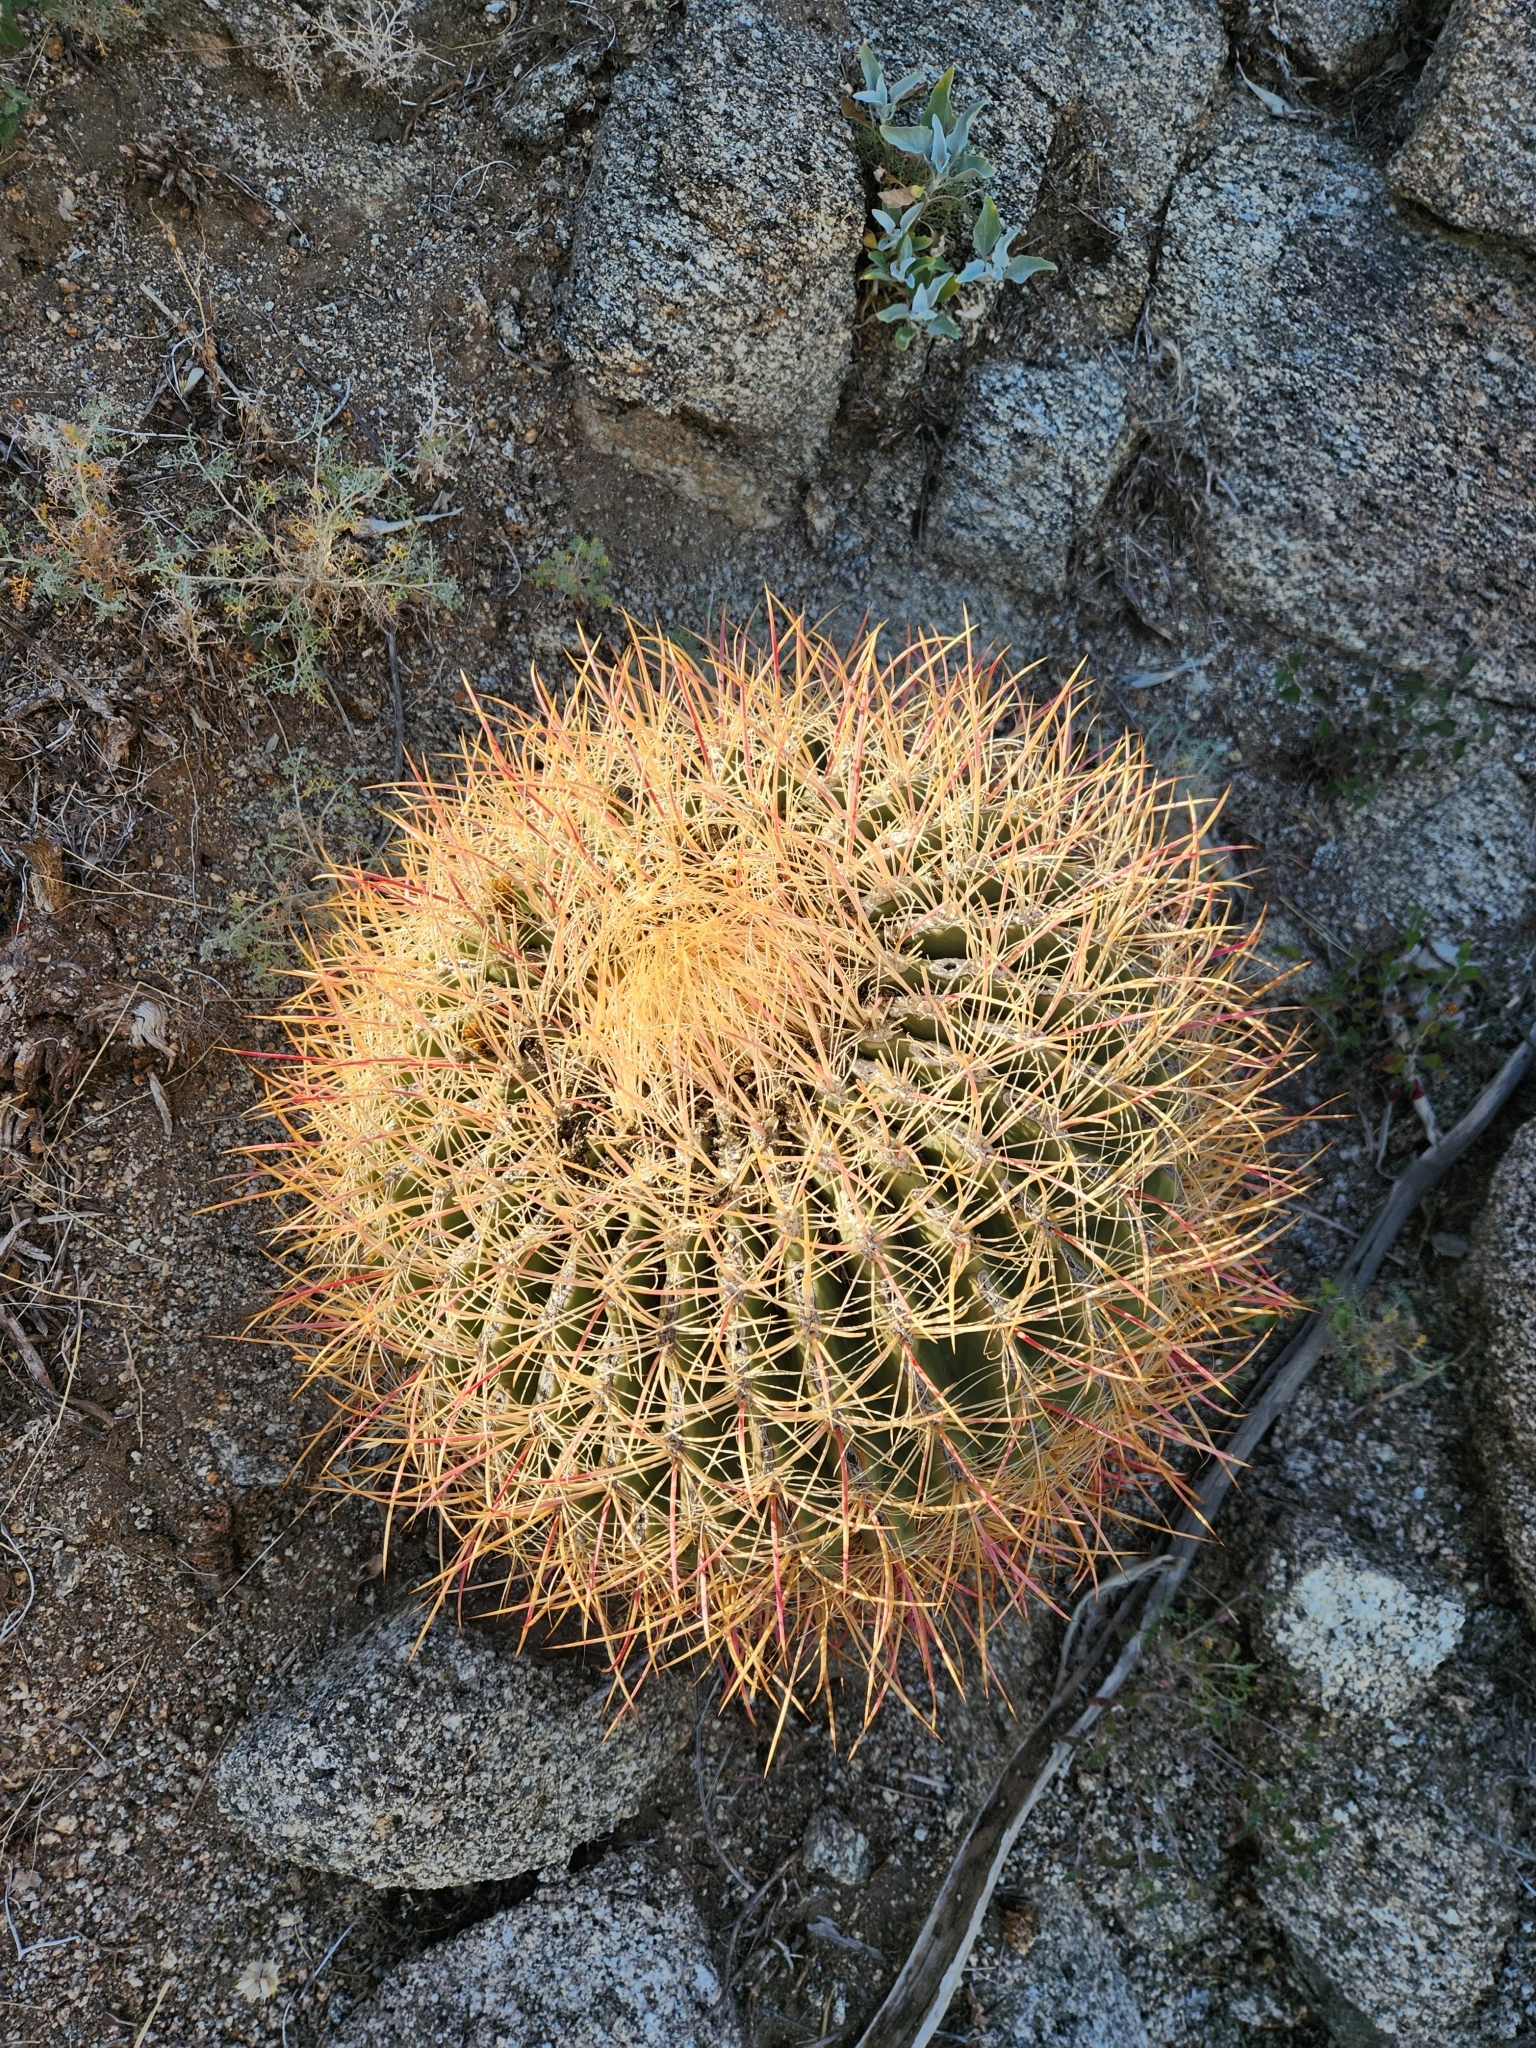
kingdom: Plantae
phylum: Tracheophyta
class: Magnoliopsida
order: Caryophyllales
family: Cactaceae
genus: Ferocactus
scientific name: Ferocactus cylindraceus
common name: California barrel cactus
